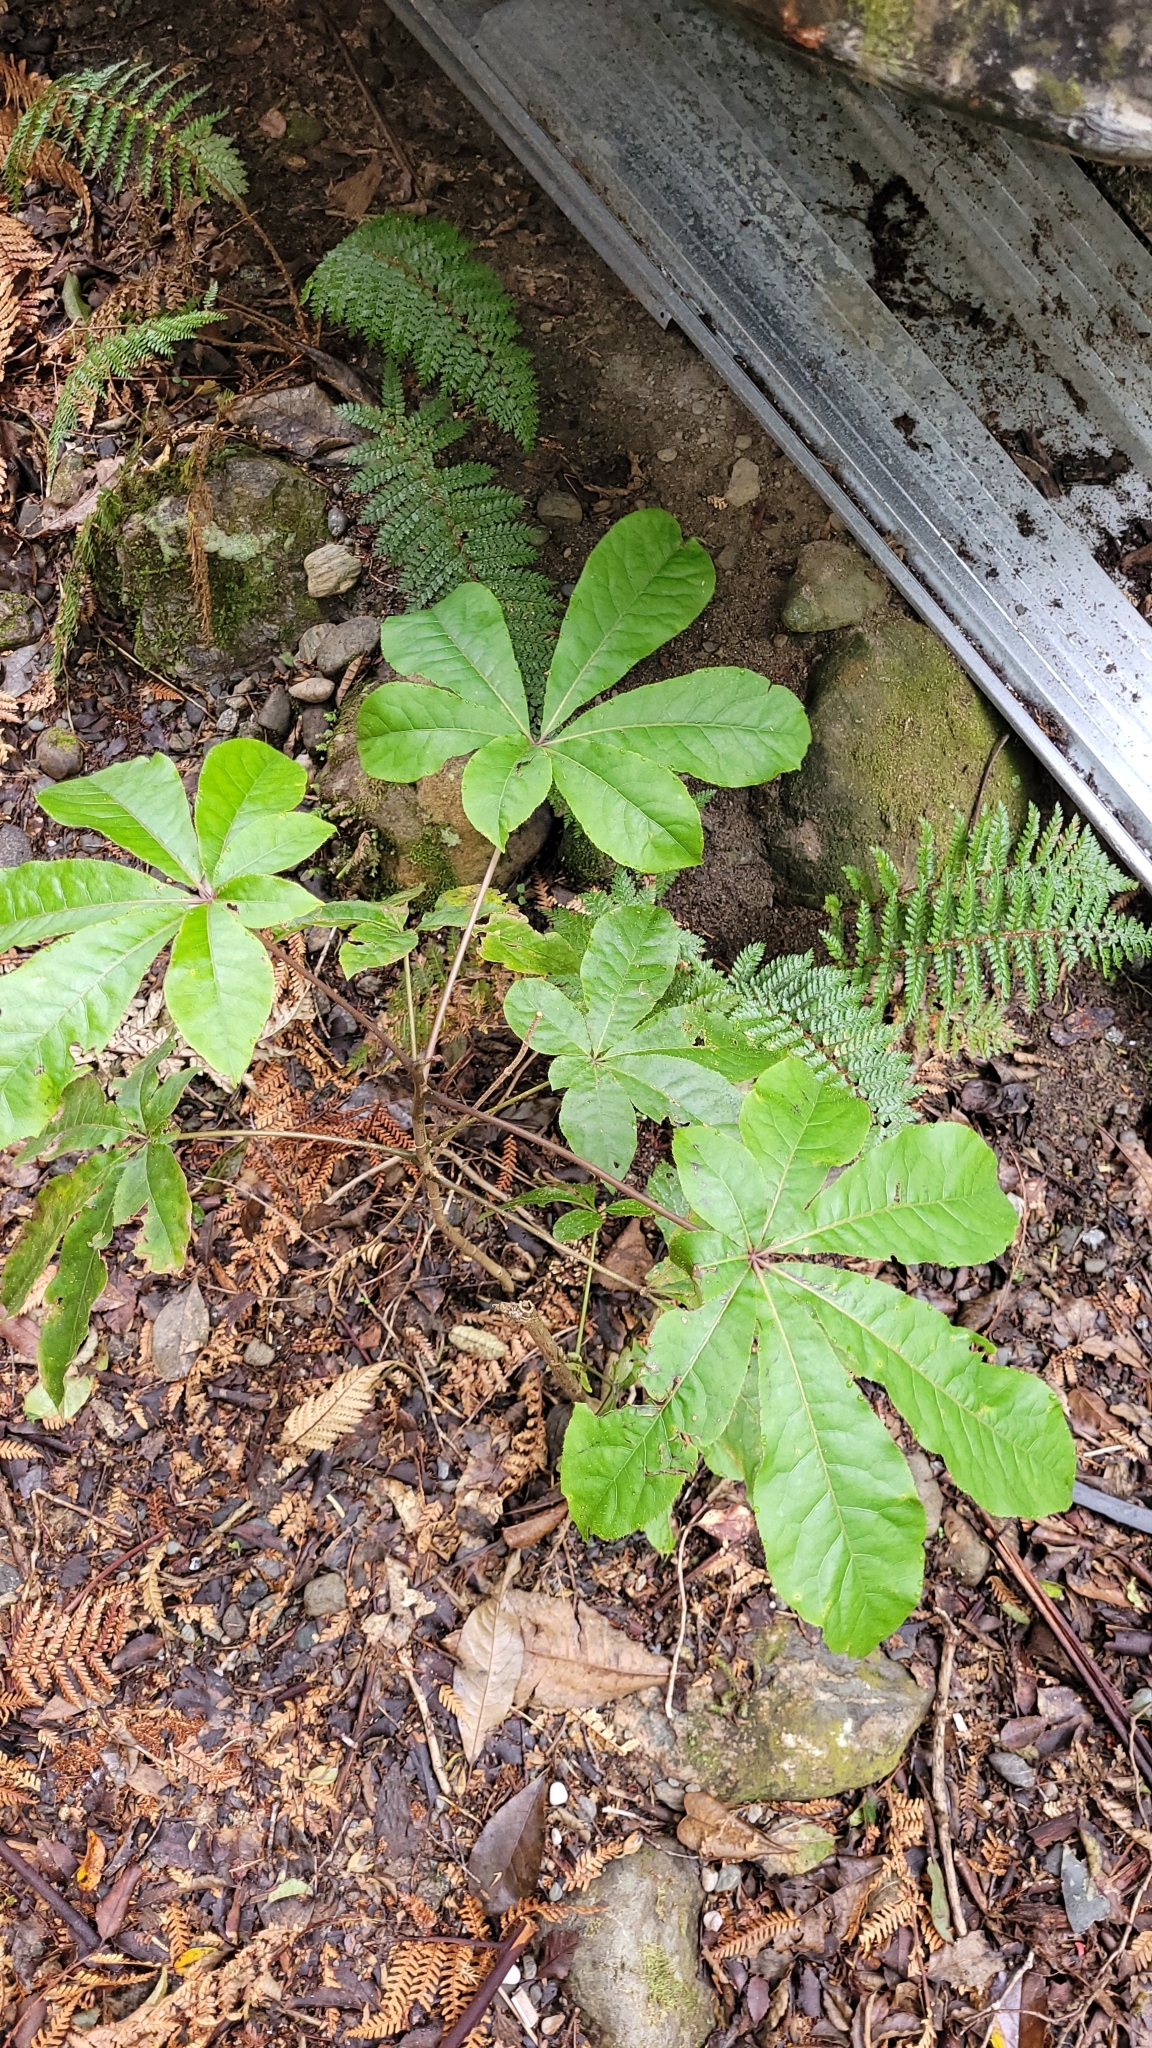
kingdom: Plantae
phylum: Tracheophyta
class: Magnoliopsida
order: Apiales
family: Araliaceae
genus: Schefflera
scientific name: Schefflera digitata
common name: Pate
